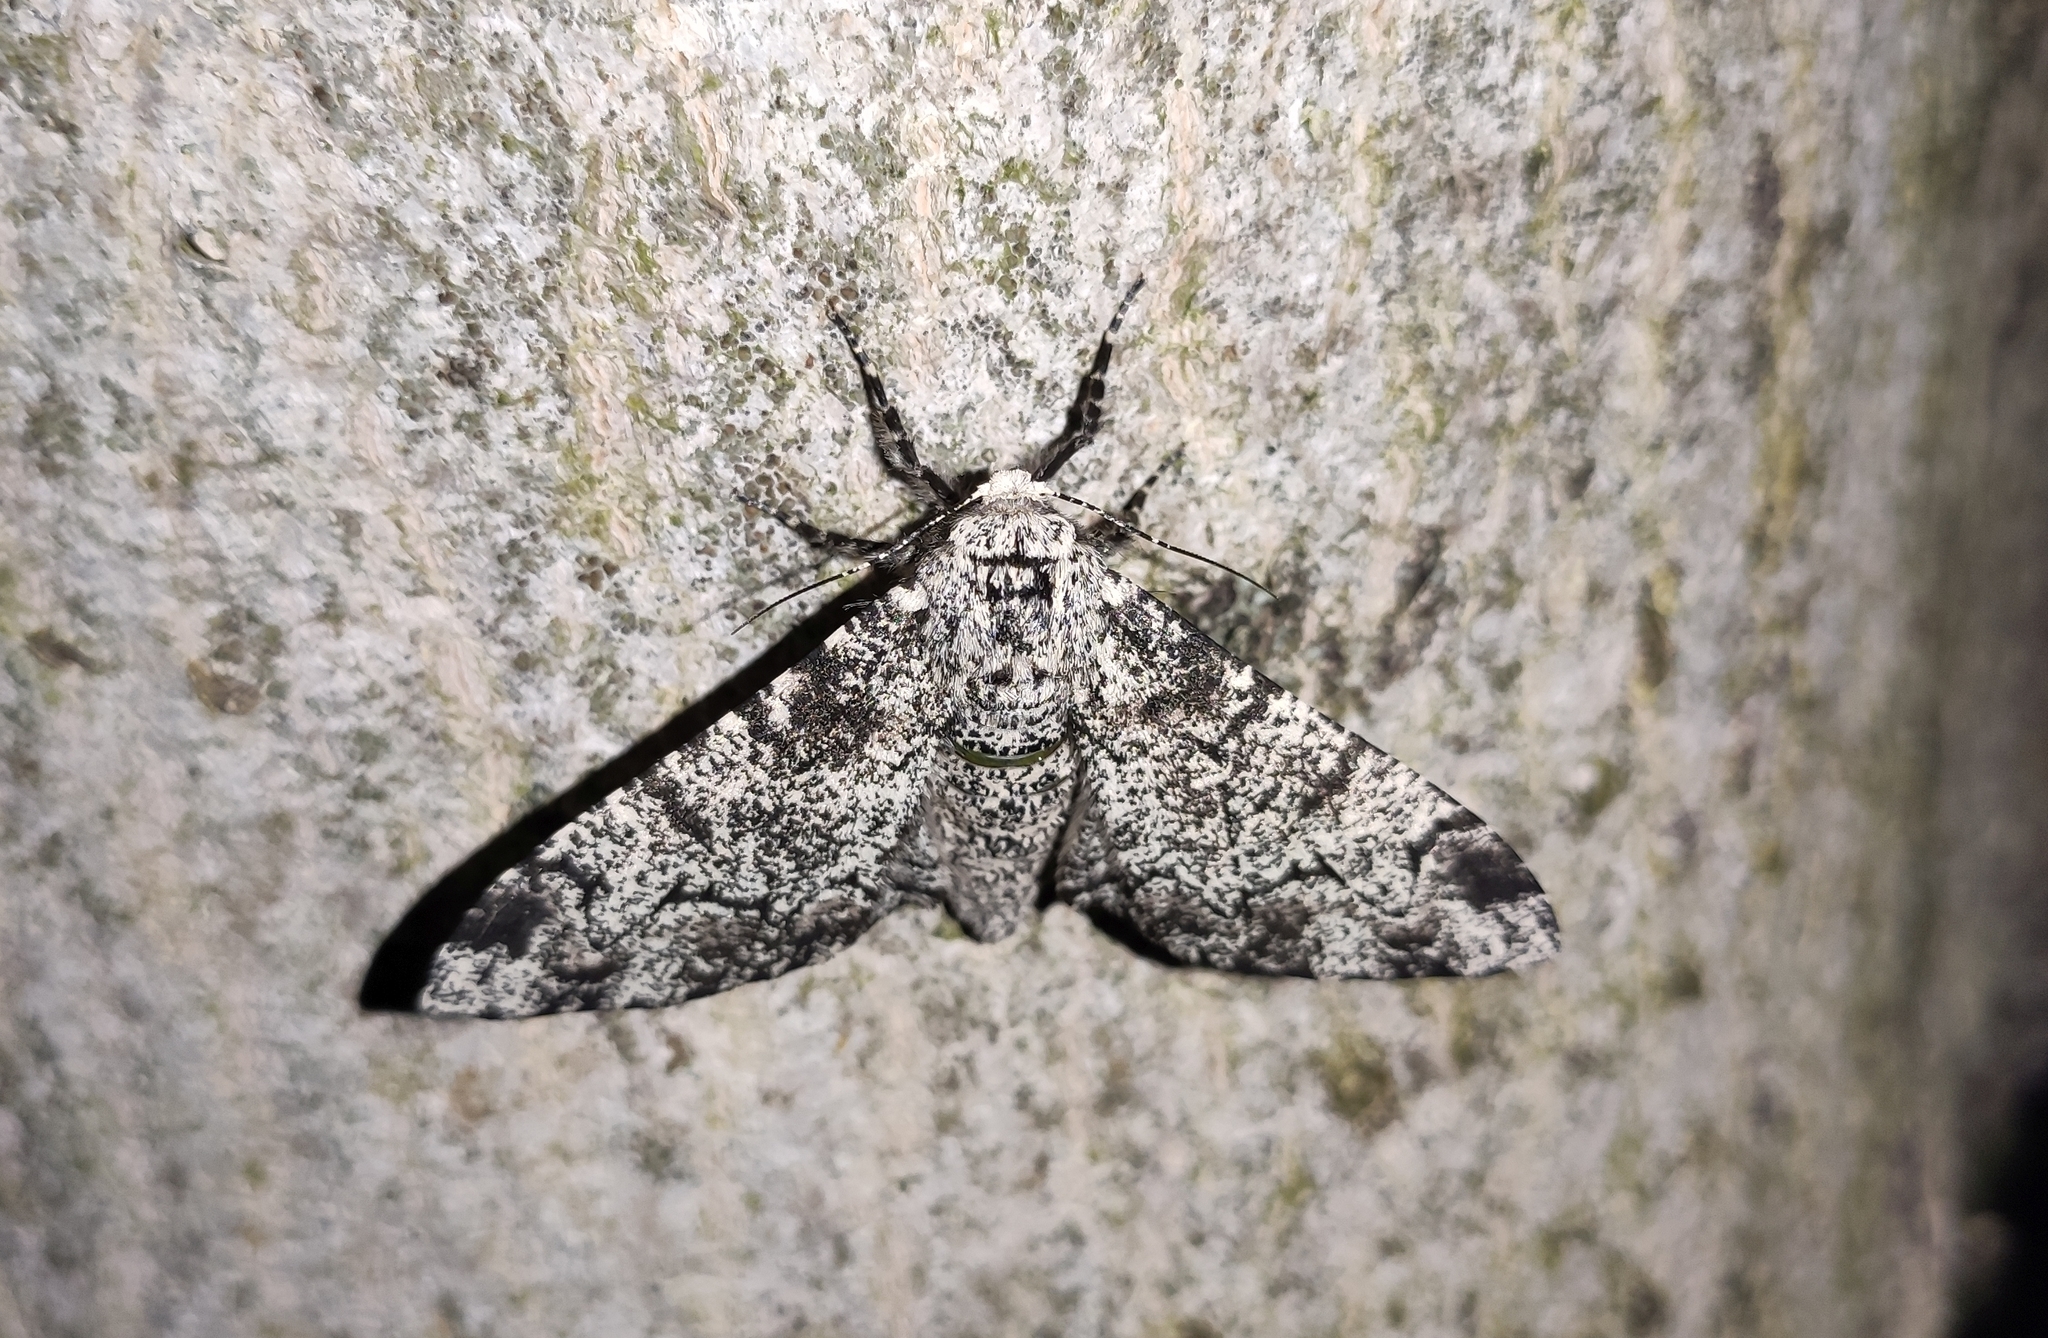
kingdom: Animalia
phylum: Arthropoda
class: Insecta
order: Lepidoptera
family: Geometridae
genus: Biston
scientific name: Biston betularia
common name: Peppered moth
